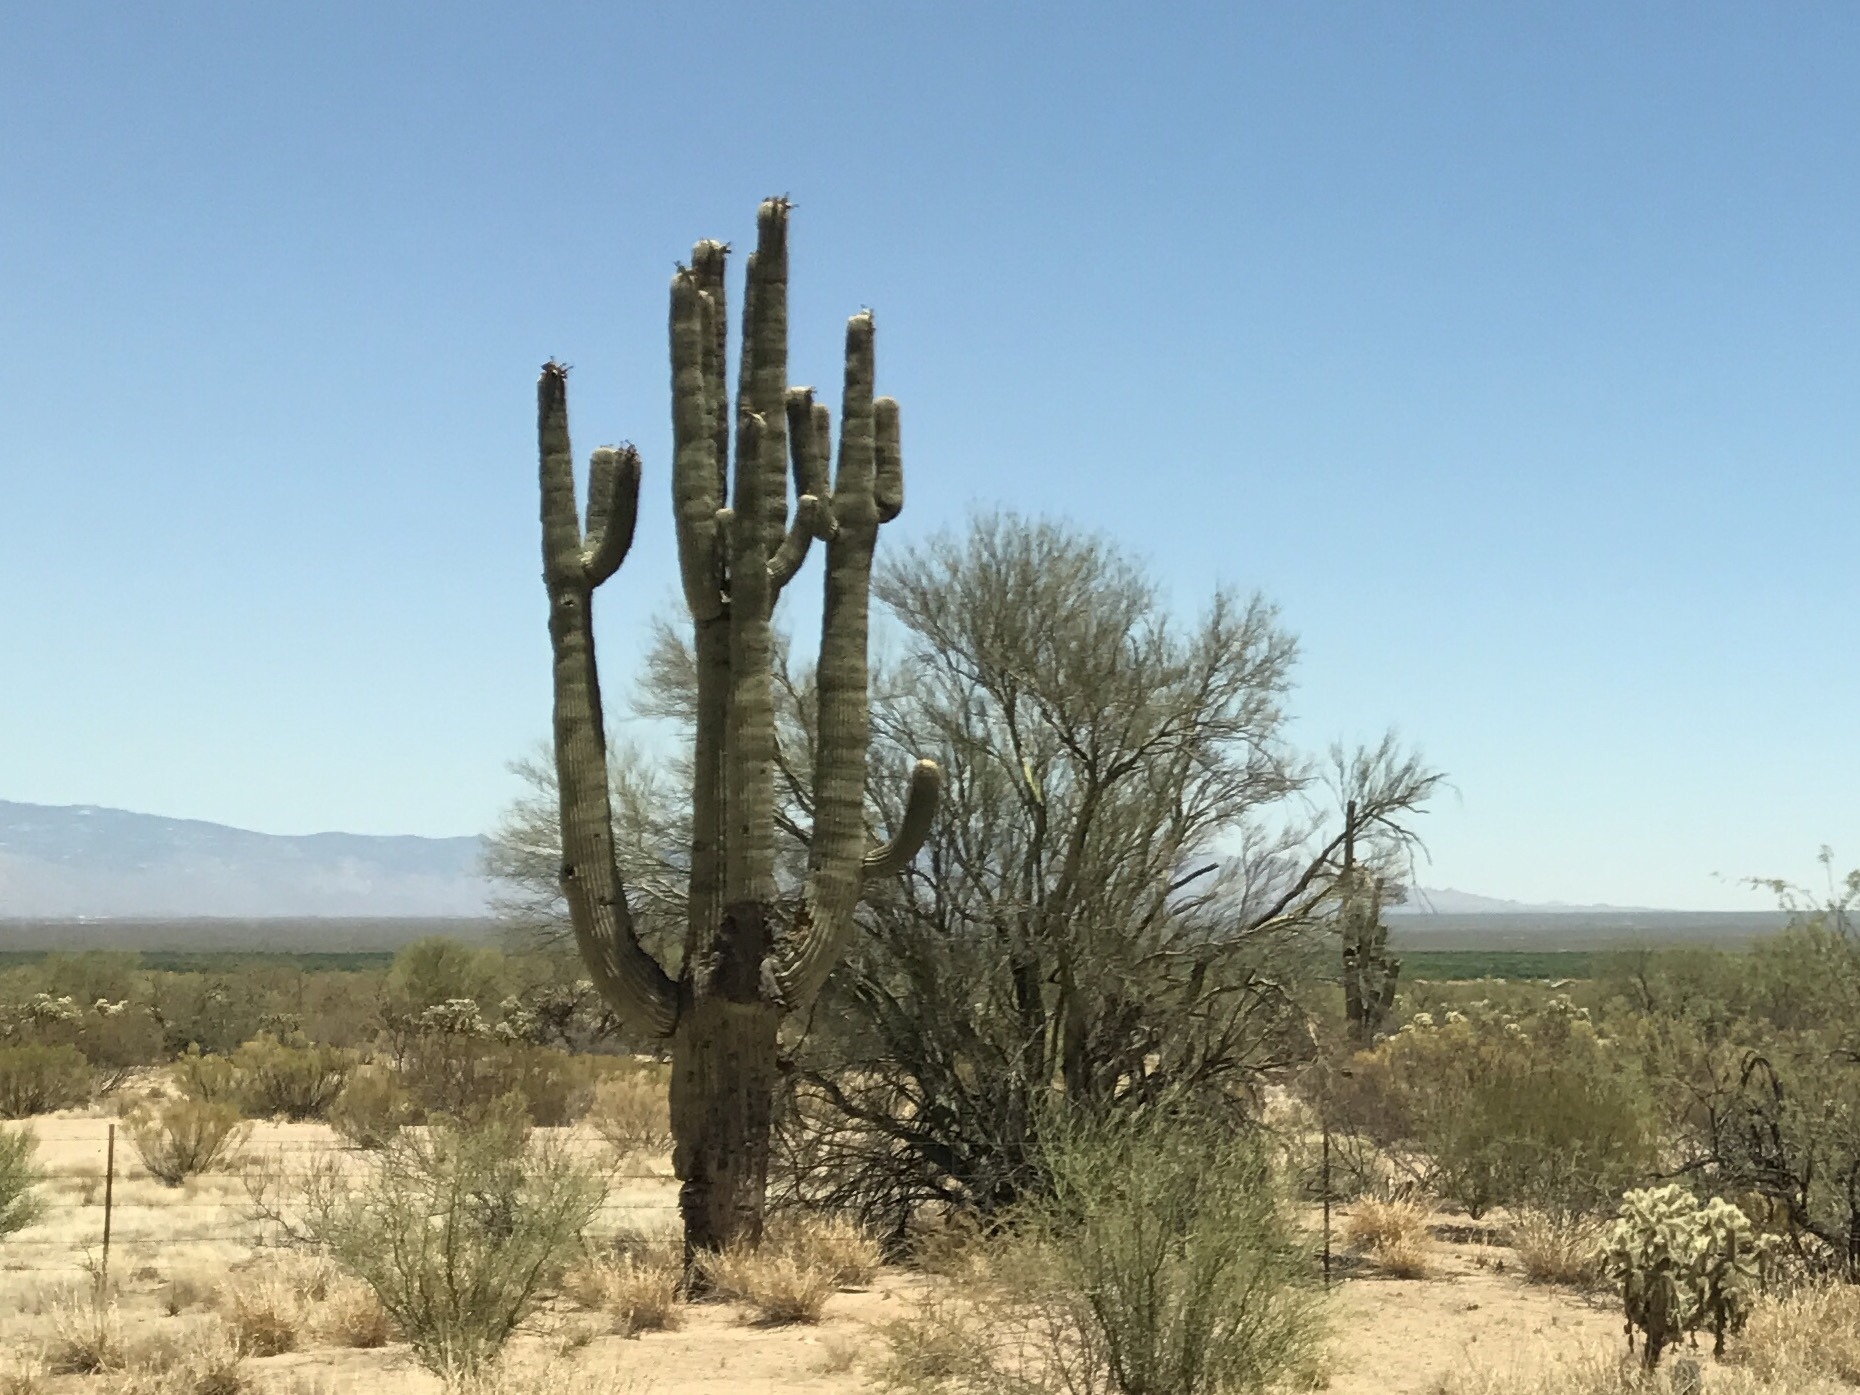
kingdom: Plantae
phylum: Tracheophyta
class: Magnoliopsida
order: Caryophyllales
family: Cactaceae
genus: Carnegiea
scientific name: Carnegiea gigantea
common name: Saguaro
